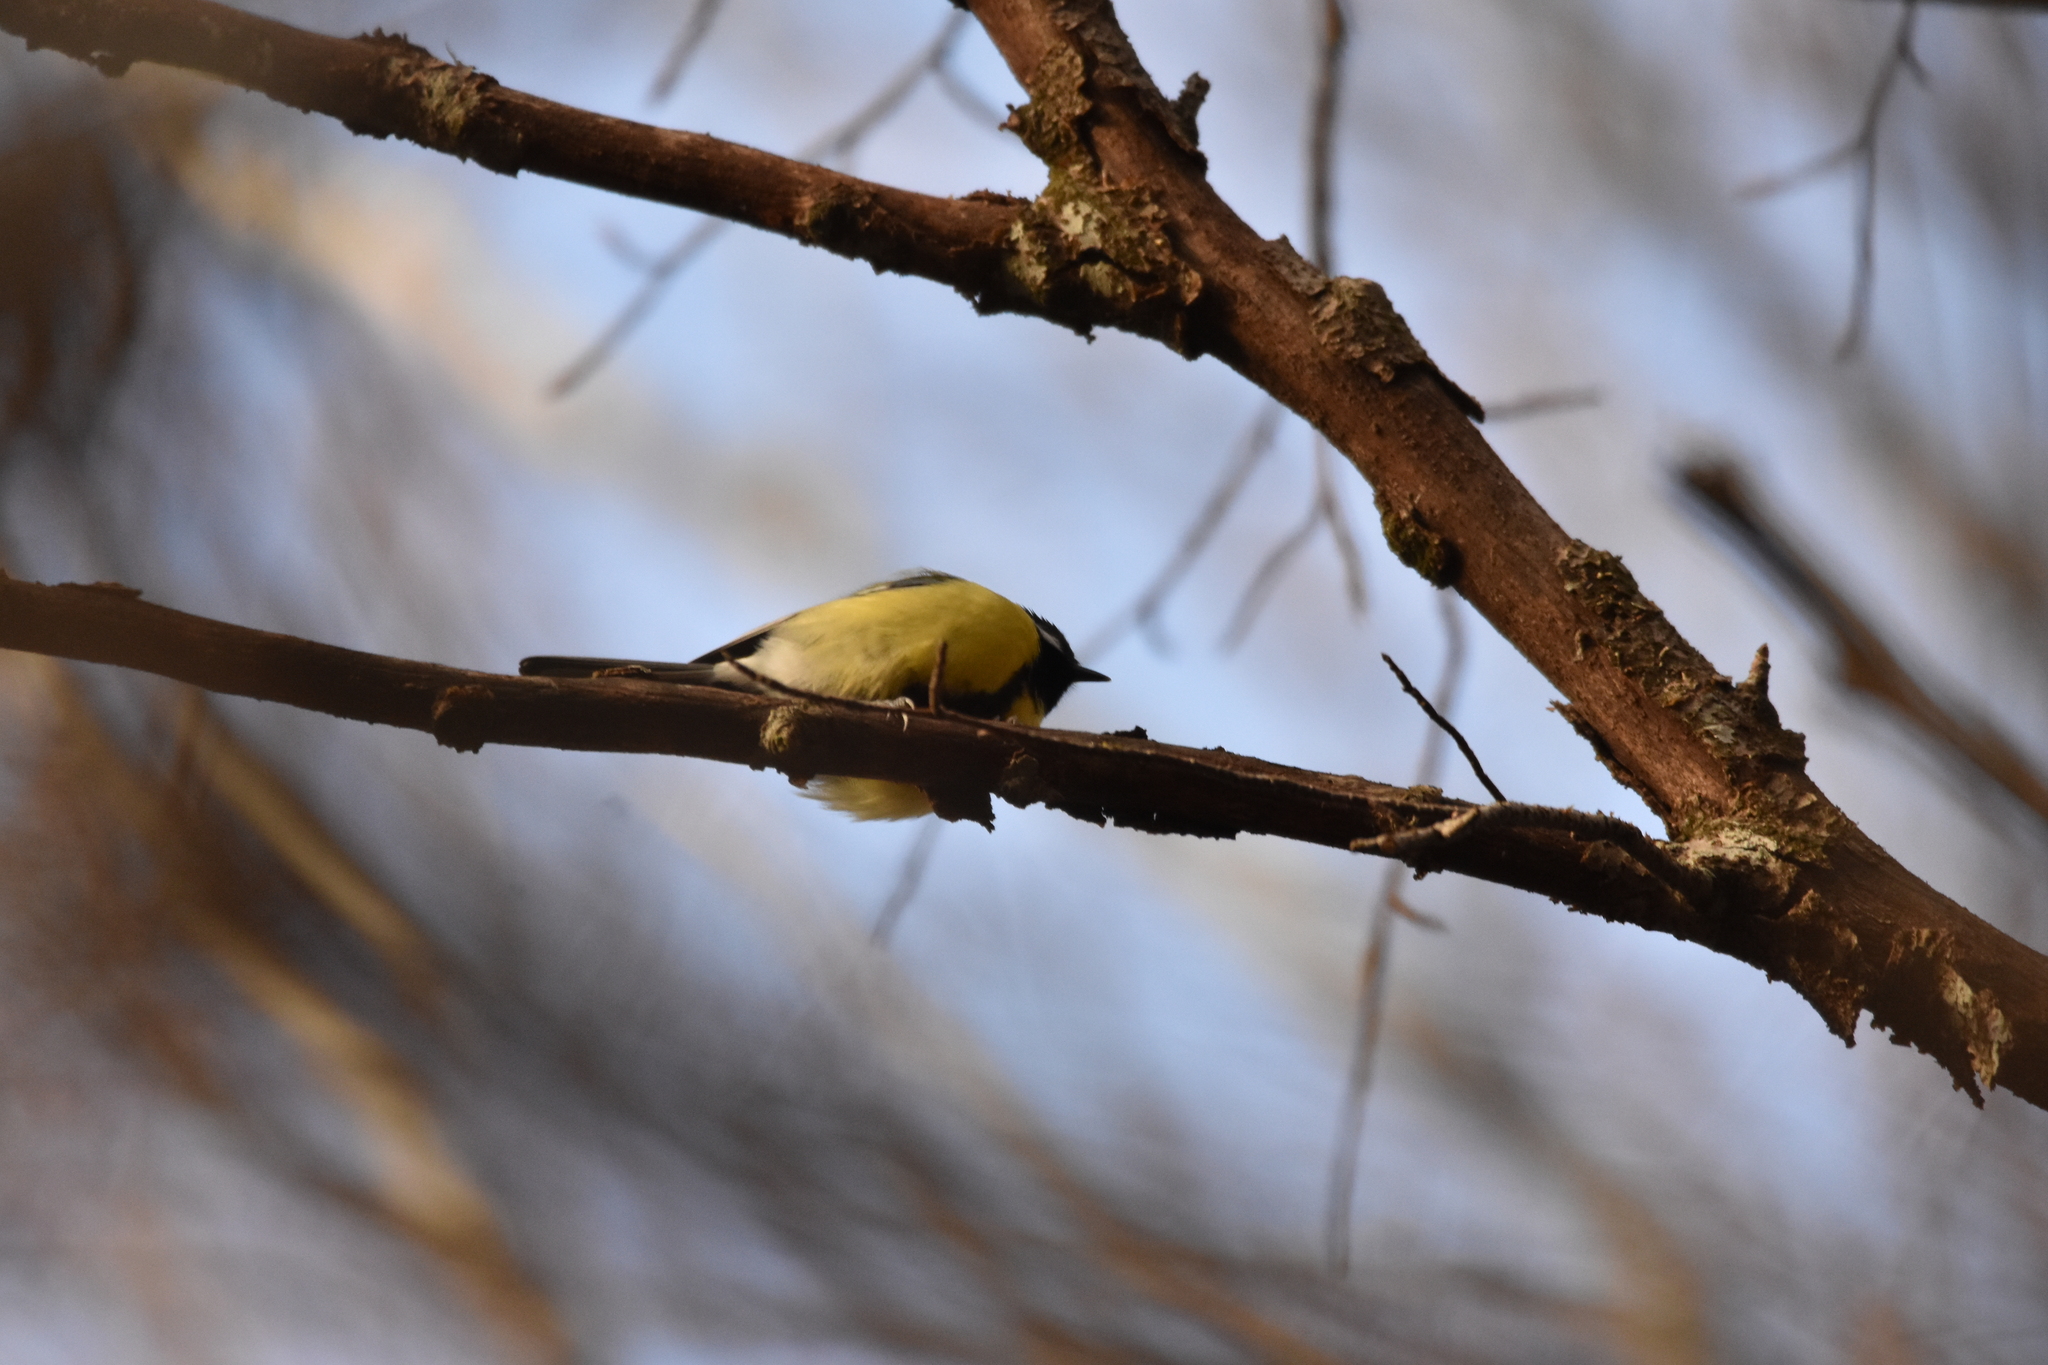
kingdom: Animalia
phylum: Chordata
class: Aves
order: Passeriformes
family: Paridae
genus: Parus
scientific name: Parus major
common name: Great tit
